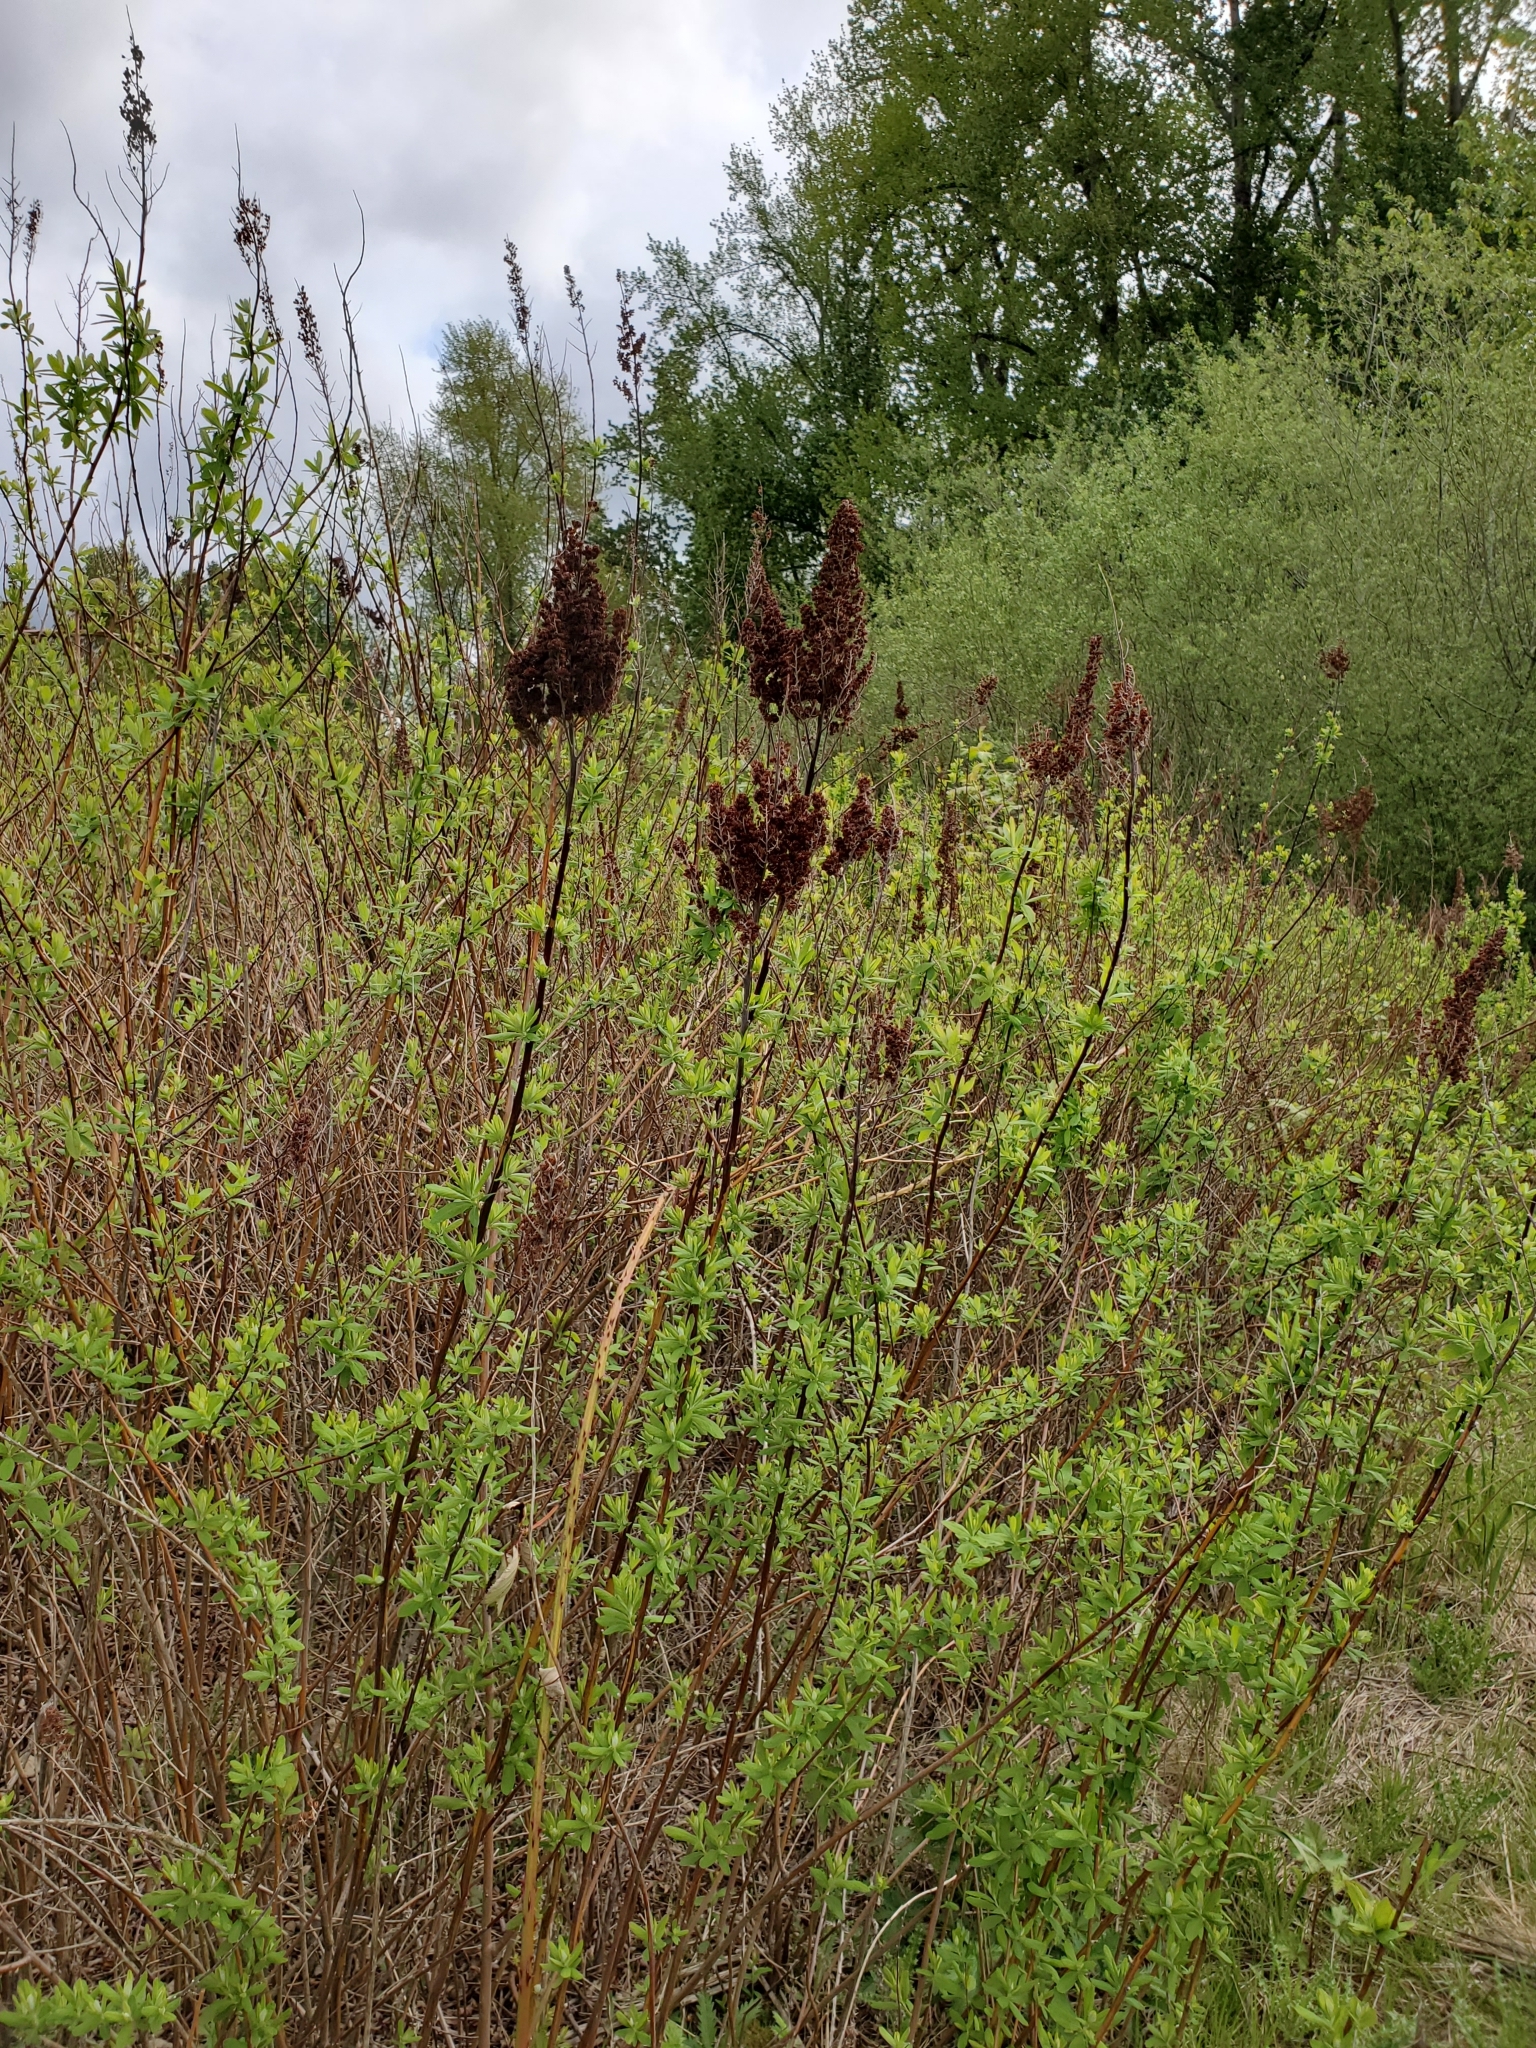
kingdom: Plantae
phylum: Tracheophyta
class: Magnoliopsida
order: Rosales
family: Rosaceae
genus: Spiraea
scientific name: Spiraea douglasii
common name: Steeplebush
